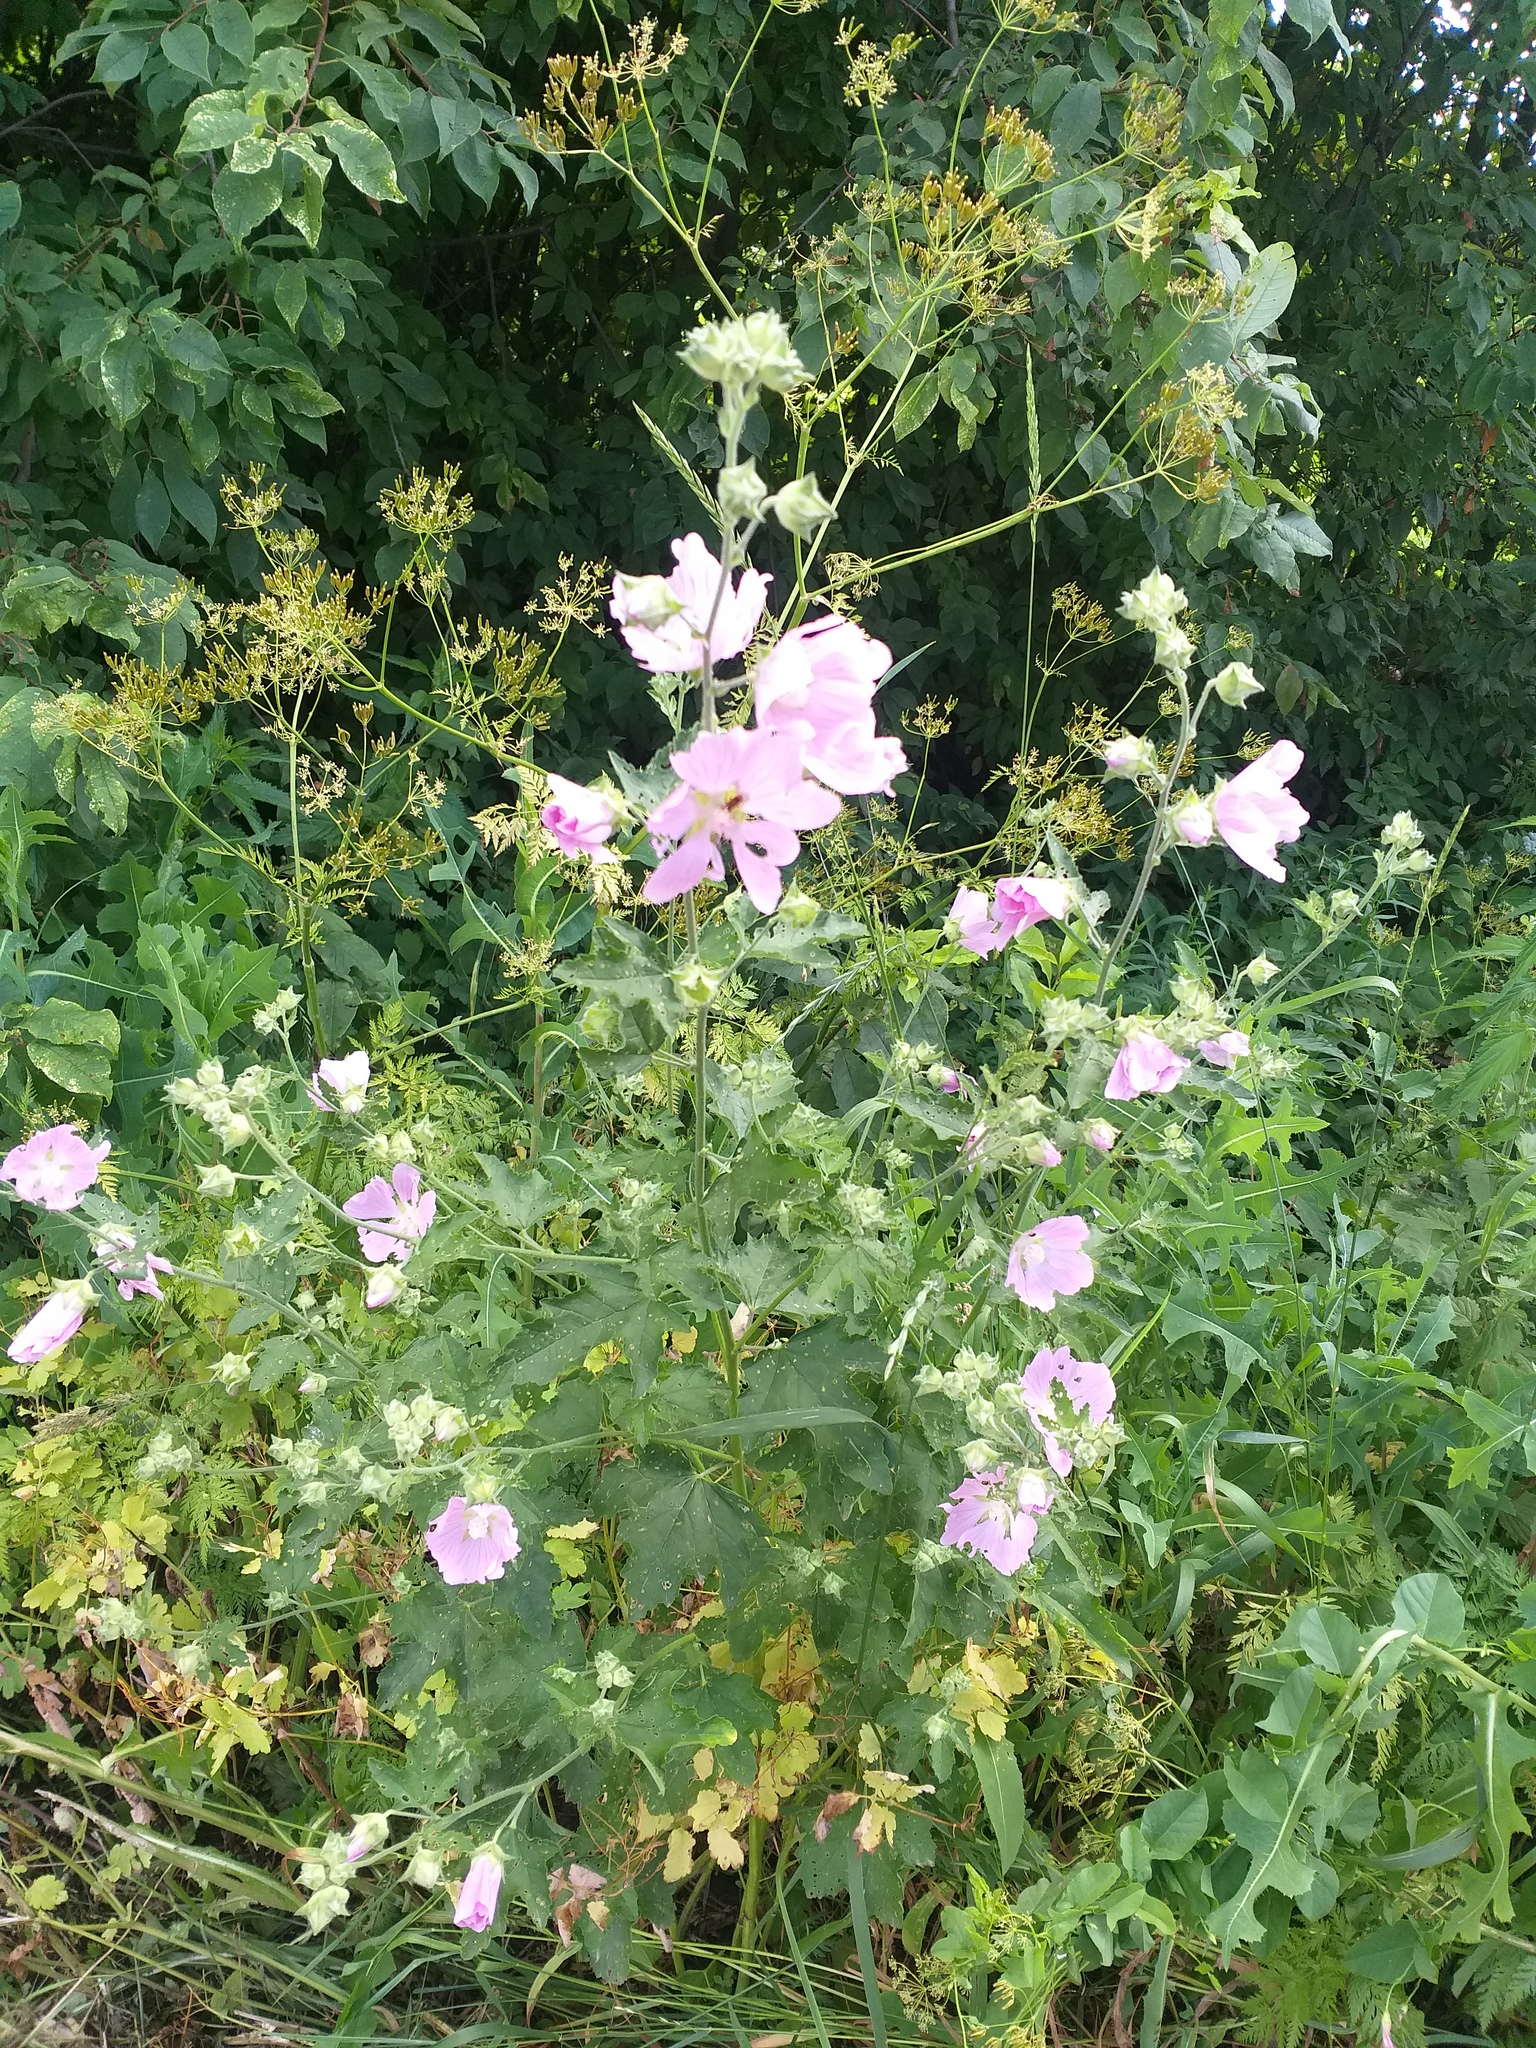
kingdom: Plantae
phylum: Tracheophyta
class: Magnoliopsida
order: Malvales
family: Malvaceae
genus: Malva
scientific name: Malva thuringiaca
